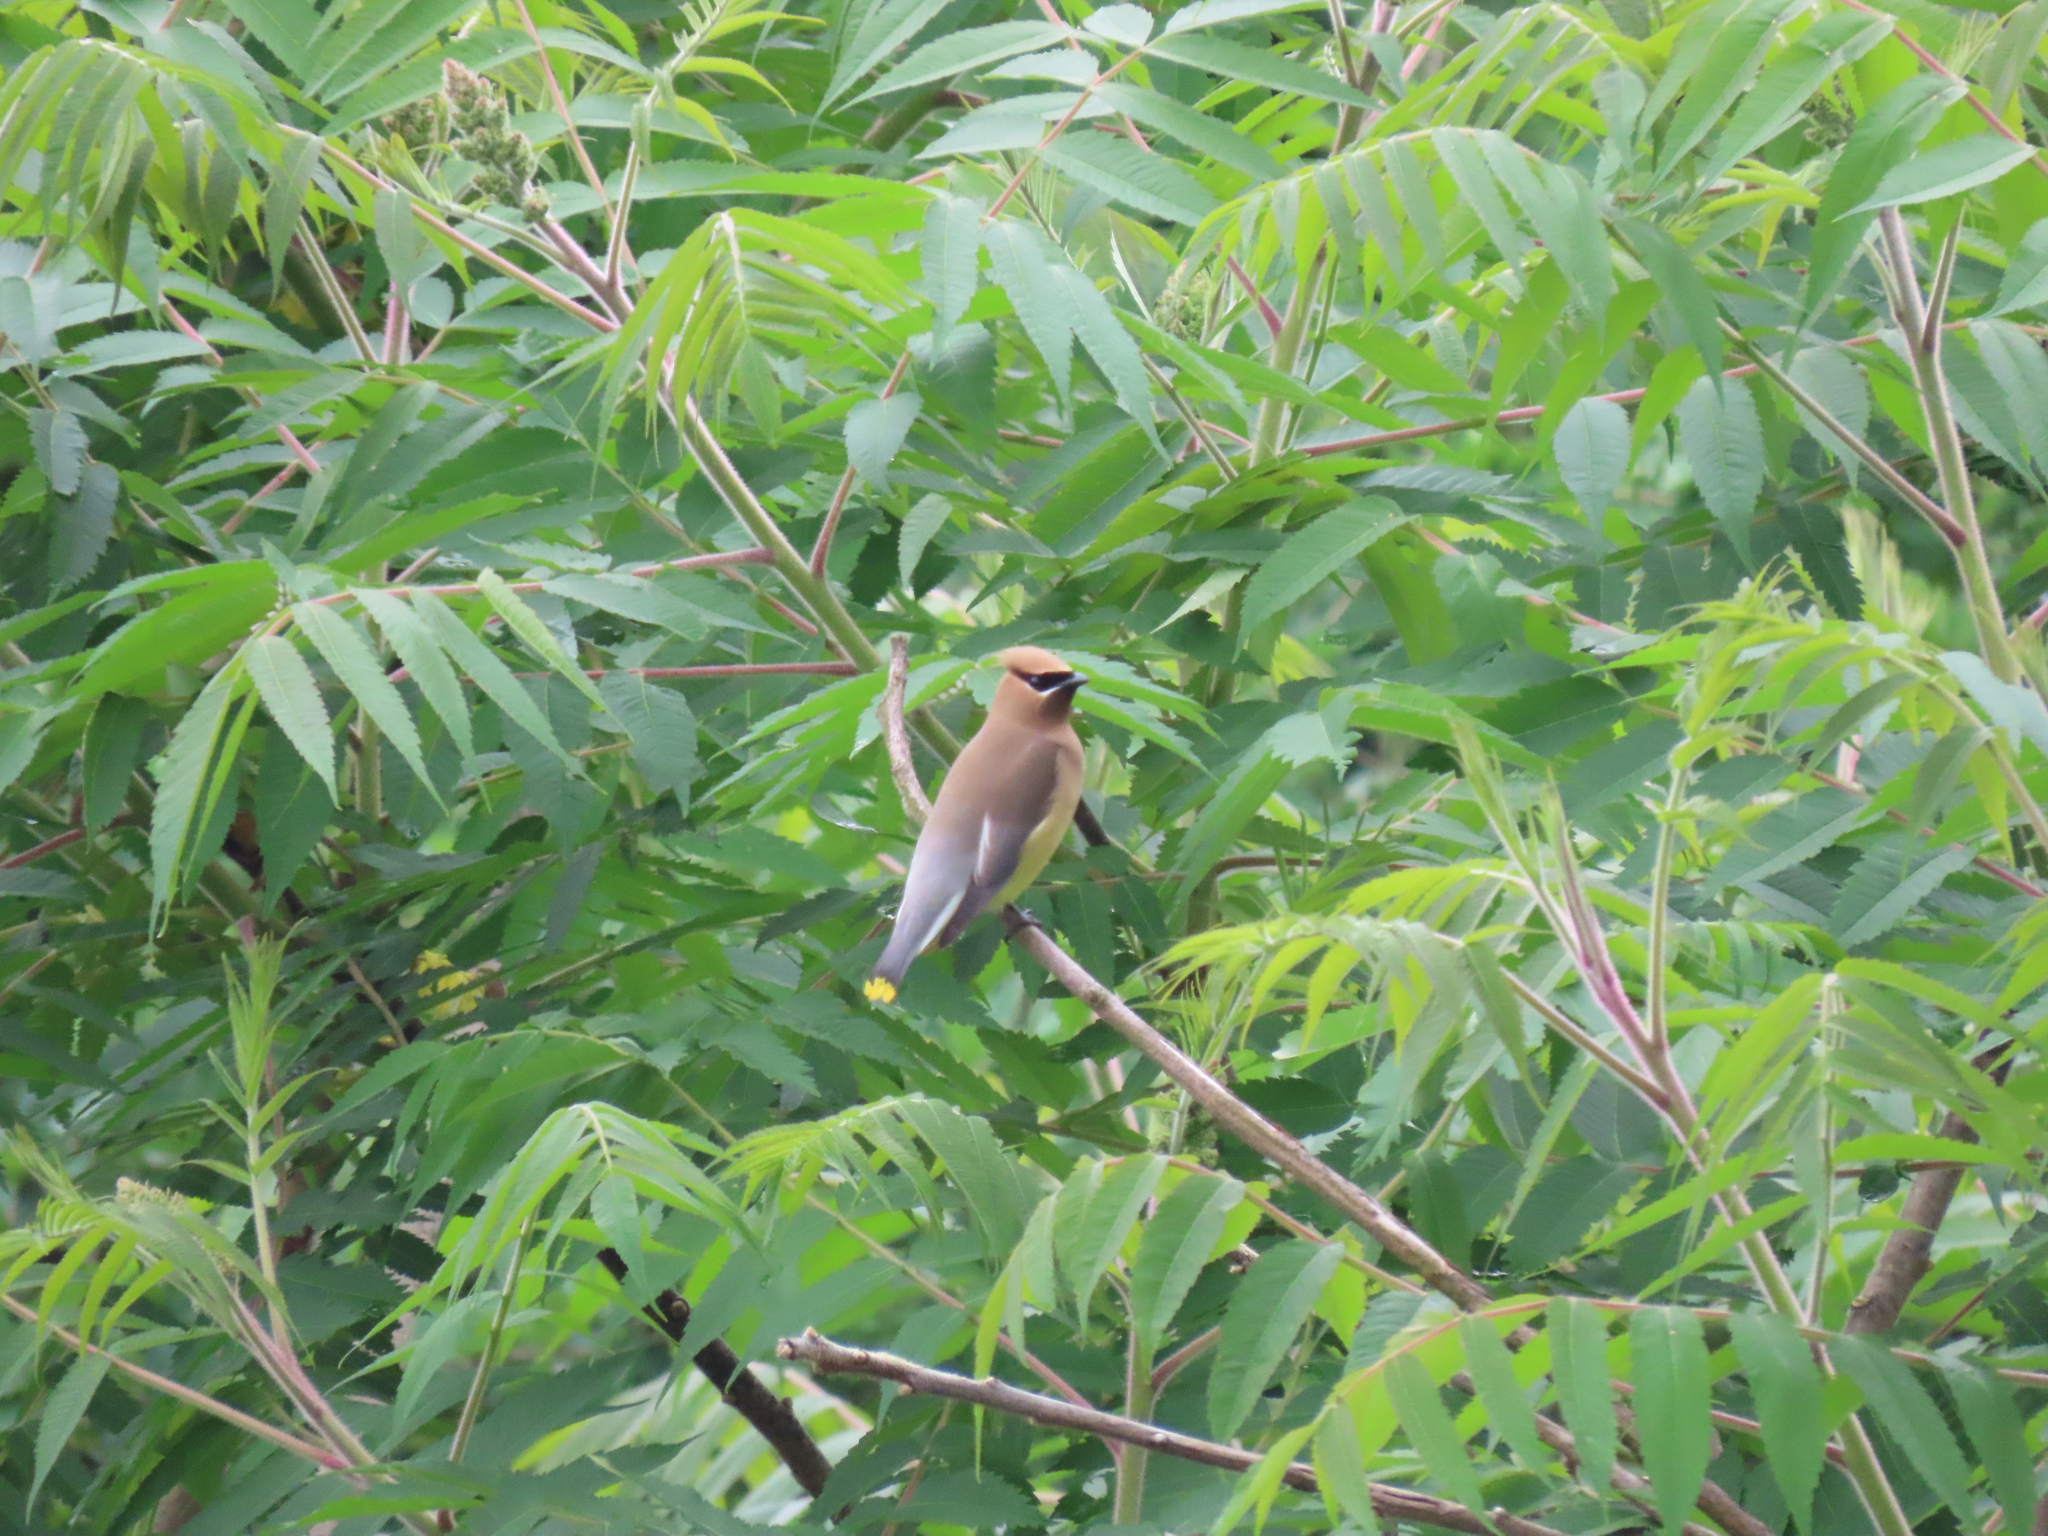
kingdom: Animalia
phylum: Chordata
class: Aves
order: Passeriformes
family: Bombycillidae
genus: Bombycilla
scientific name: Bombycilla cedrorum
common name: Cedar waxwing
